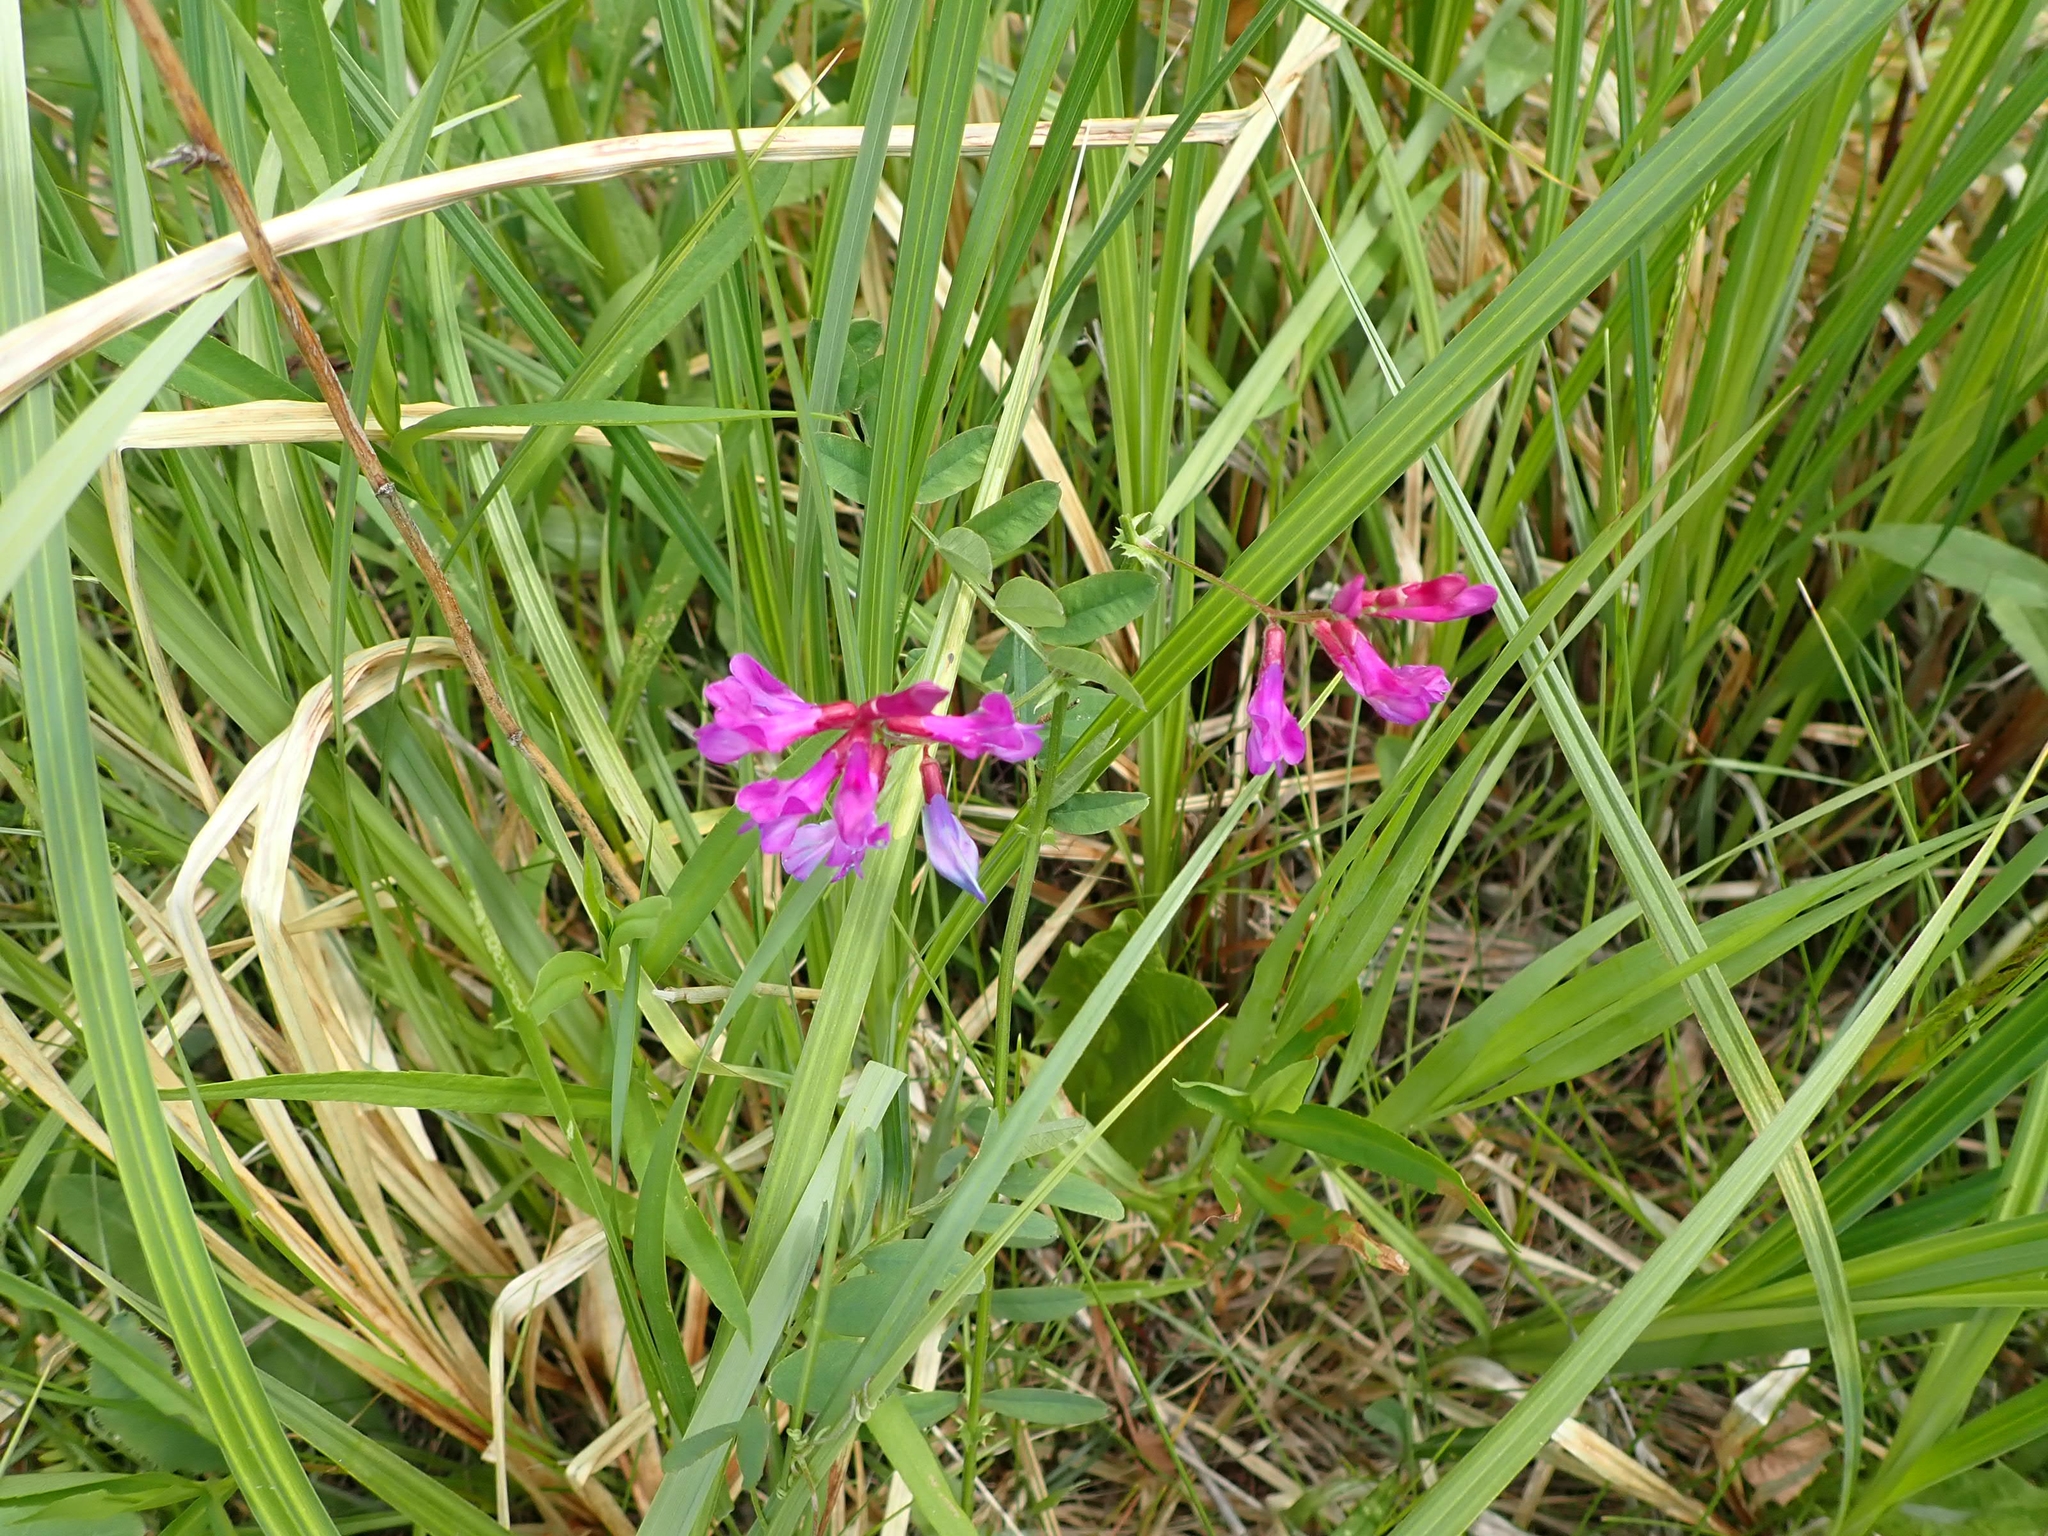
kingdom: Plantae
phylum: Tracheophyta
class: Magnoliopsida
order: Fabales
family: Fabaceae
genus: Vicia
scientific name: Vicia americana
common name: American vetch
